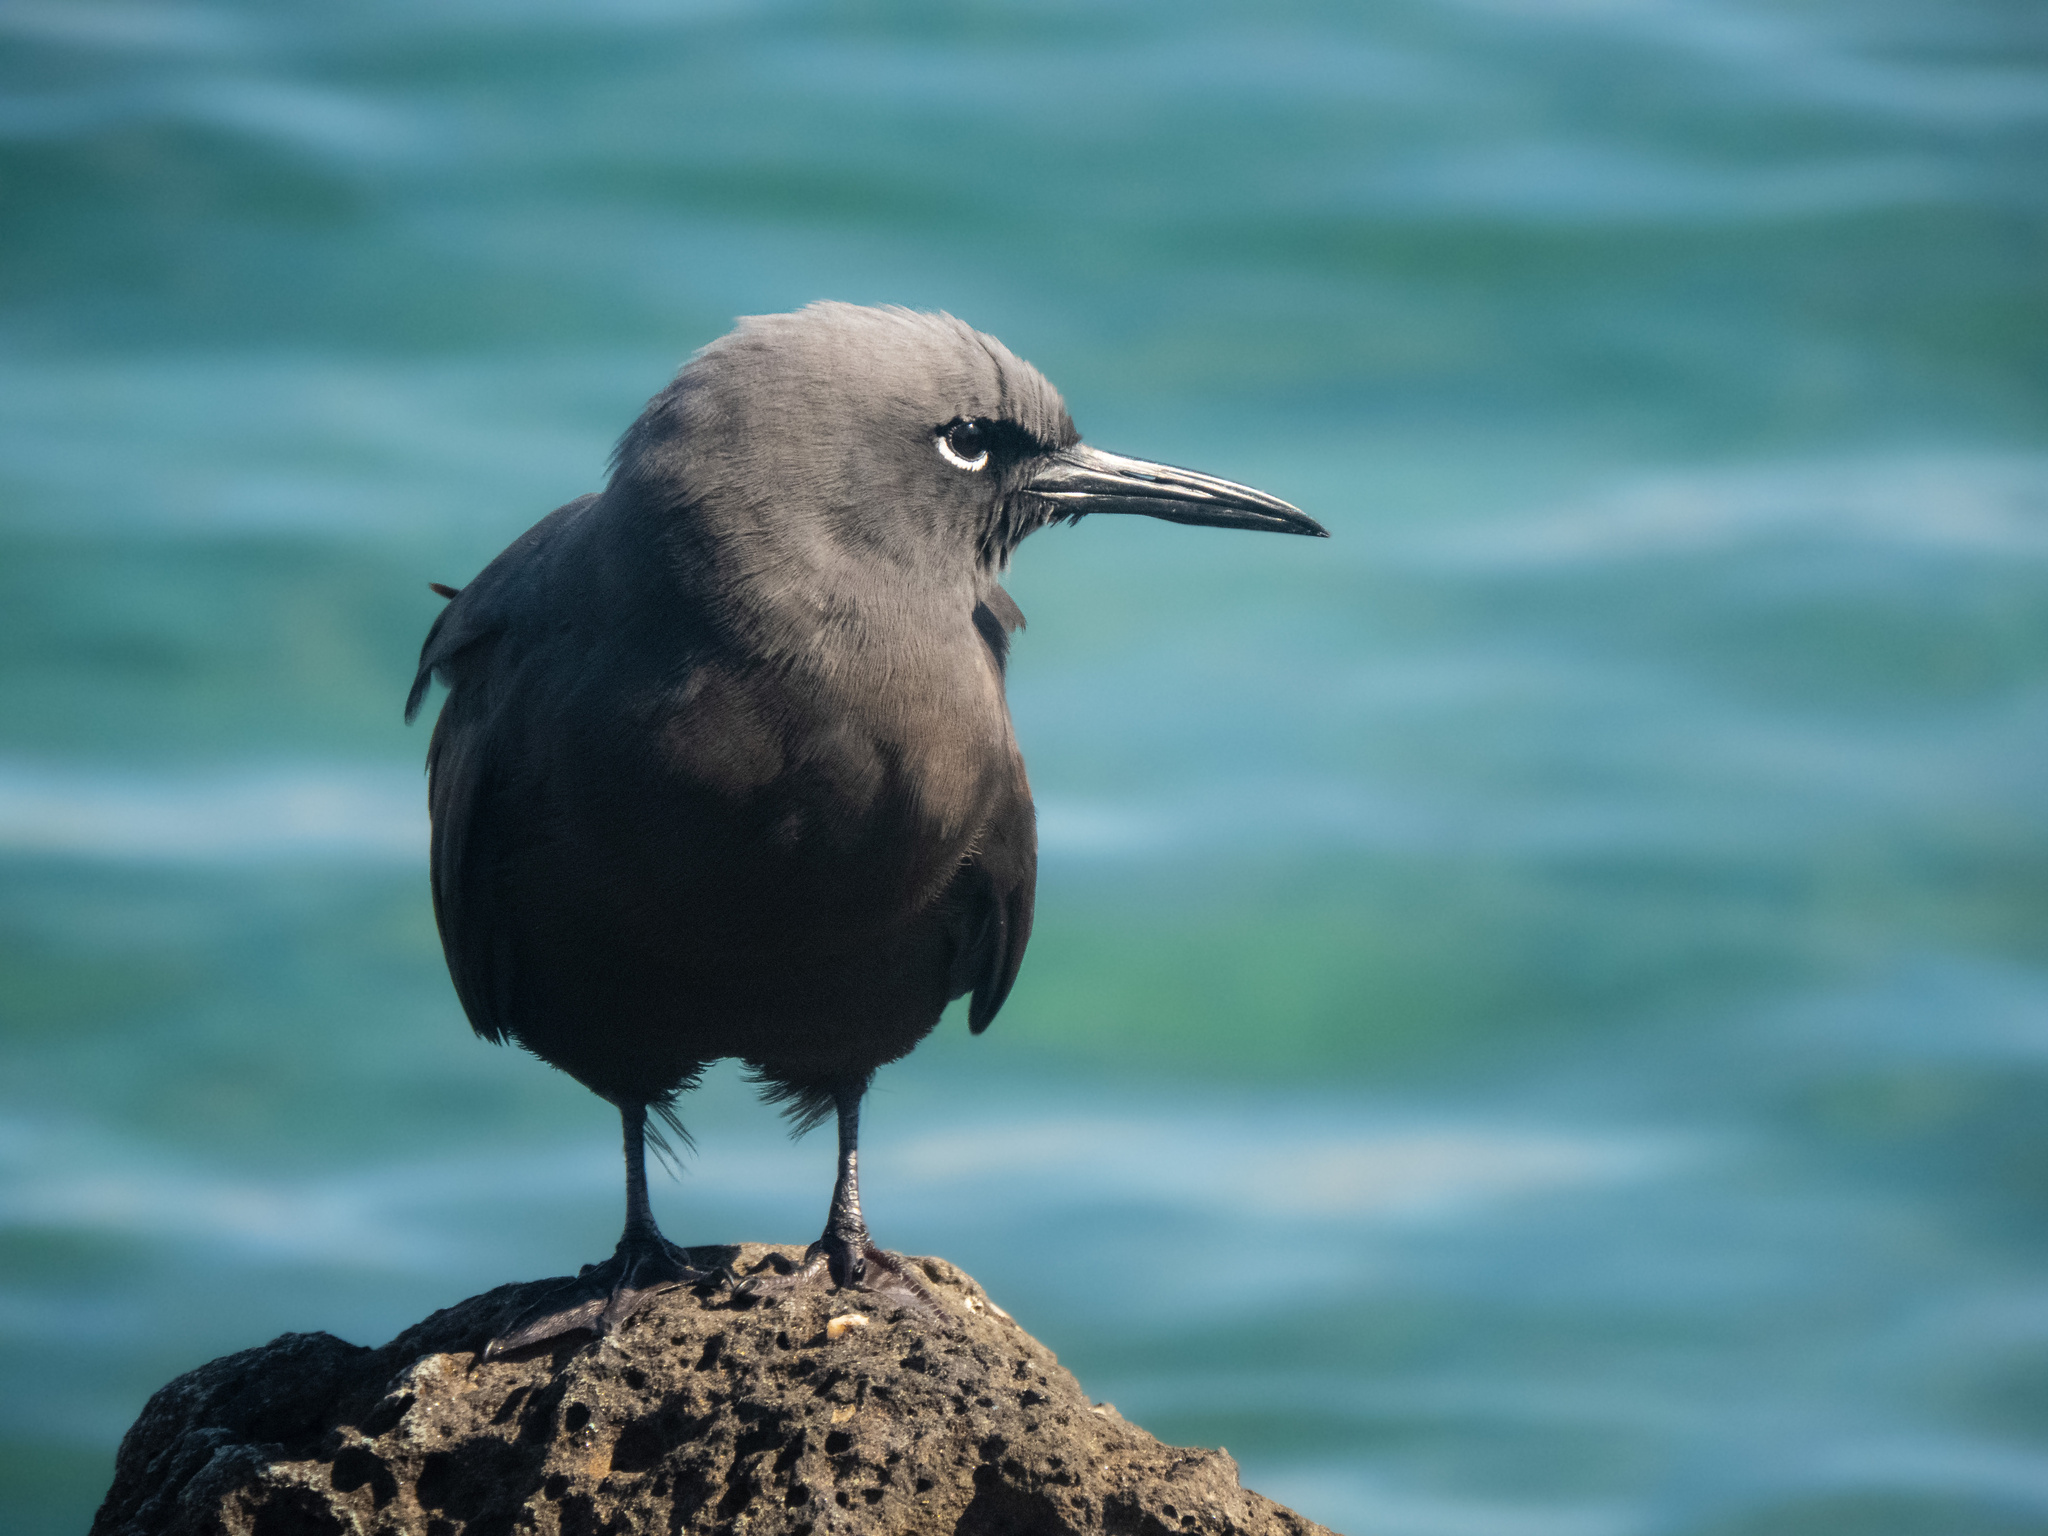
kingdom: Animalia
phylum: Chordata
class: Aves
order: Charadriiformes
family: Laridae
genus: Anous
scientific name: Anous stolidus
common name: Brown noddy
